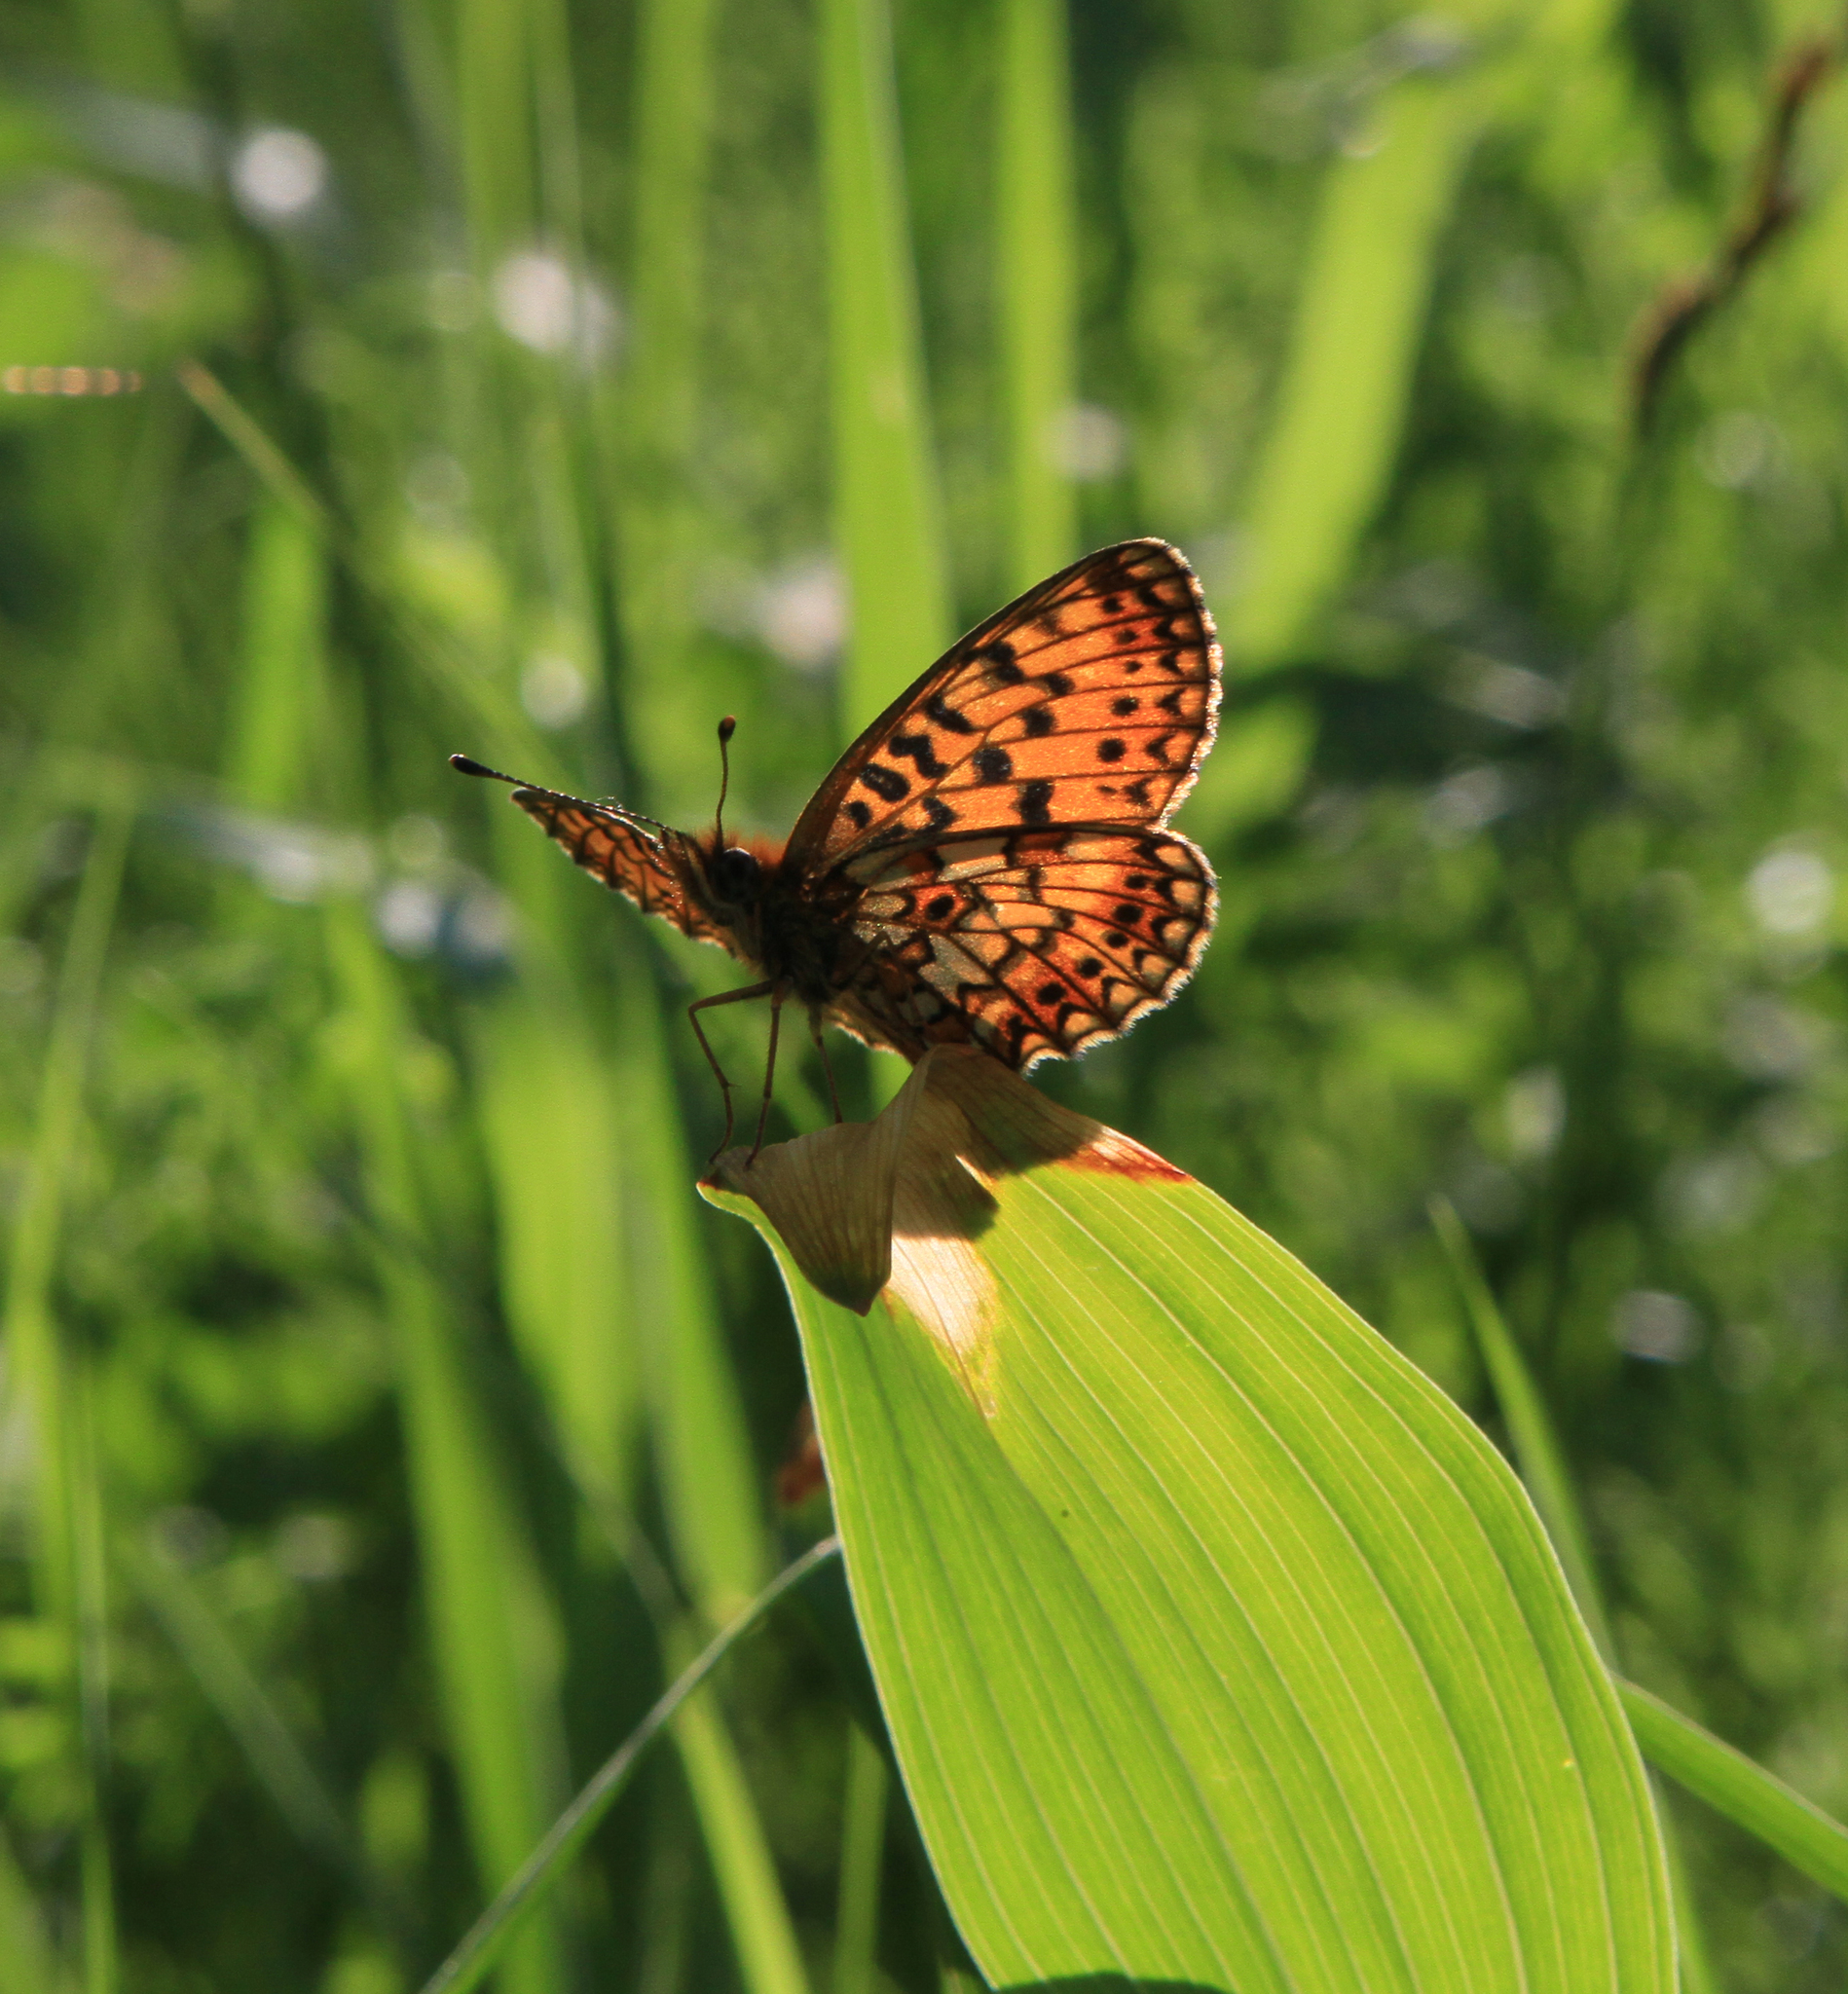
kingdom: Animalia
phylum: Arthropoda
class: Insecta
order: Lepidoptera
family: Nymphalidae
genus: Boloria
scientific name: Boloria selene
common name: Small pearl-bordered fritillary
